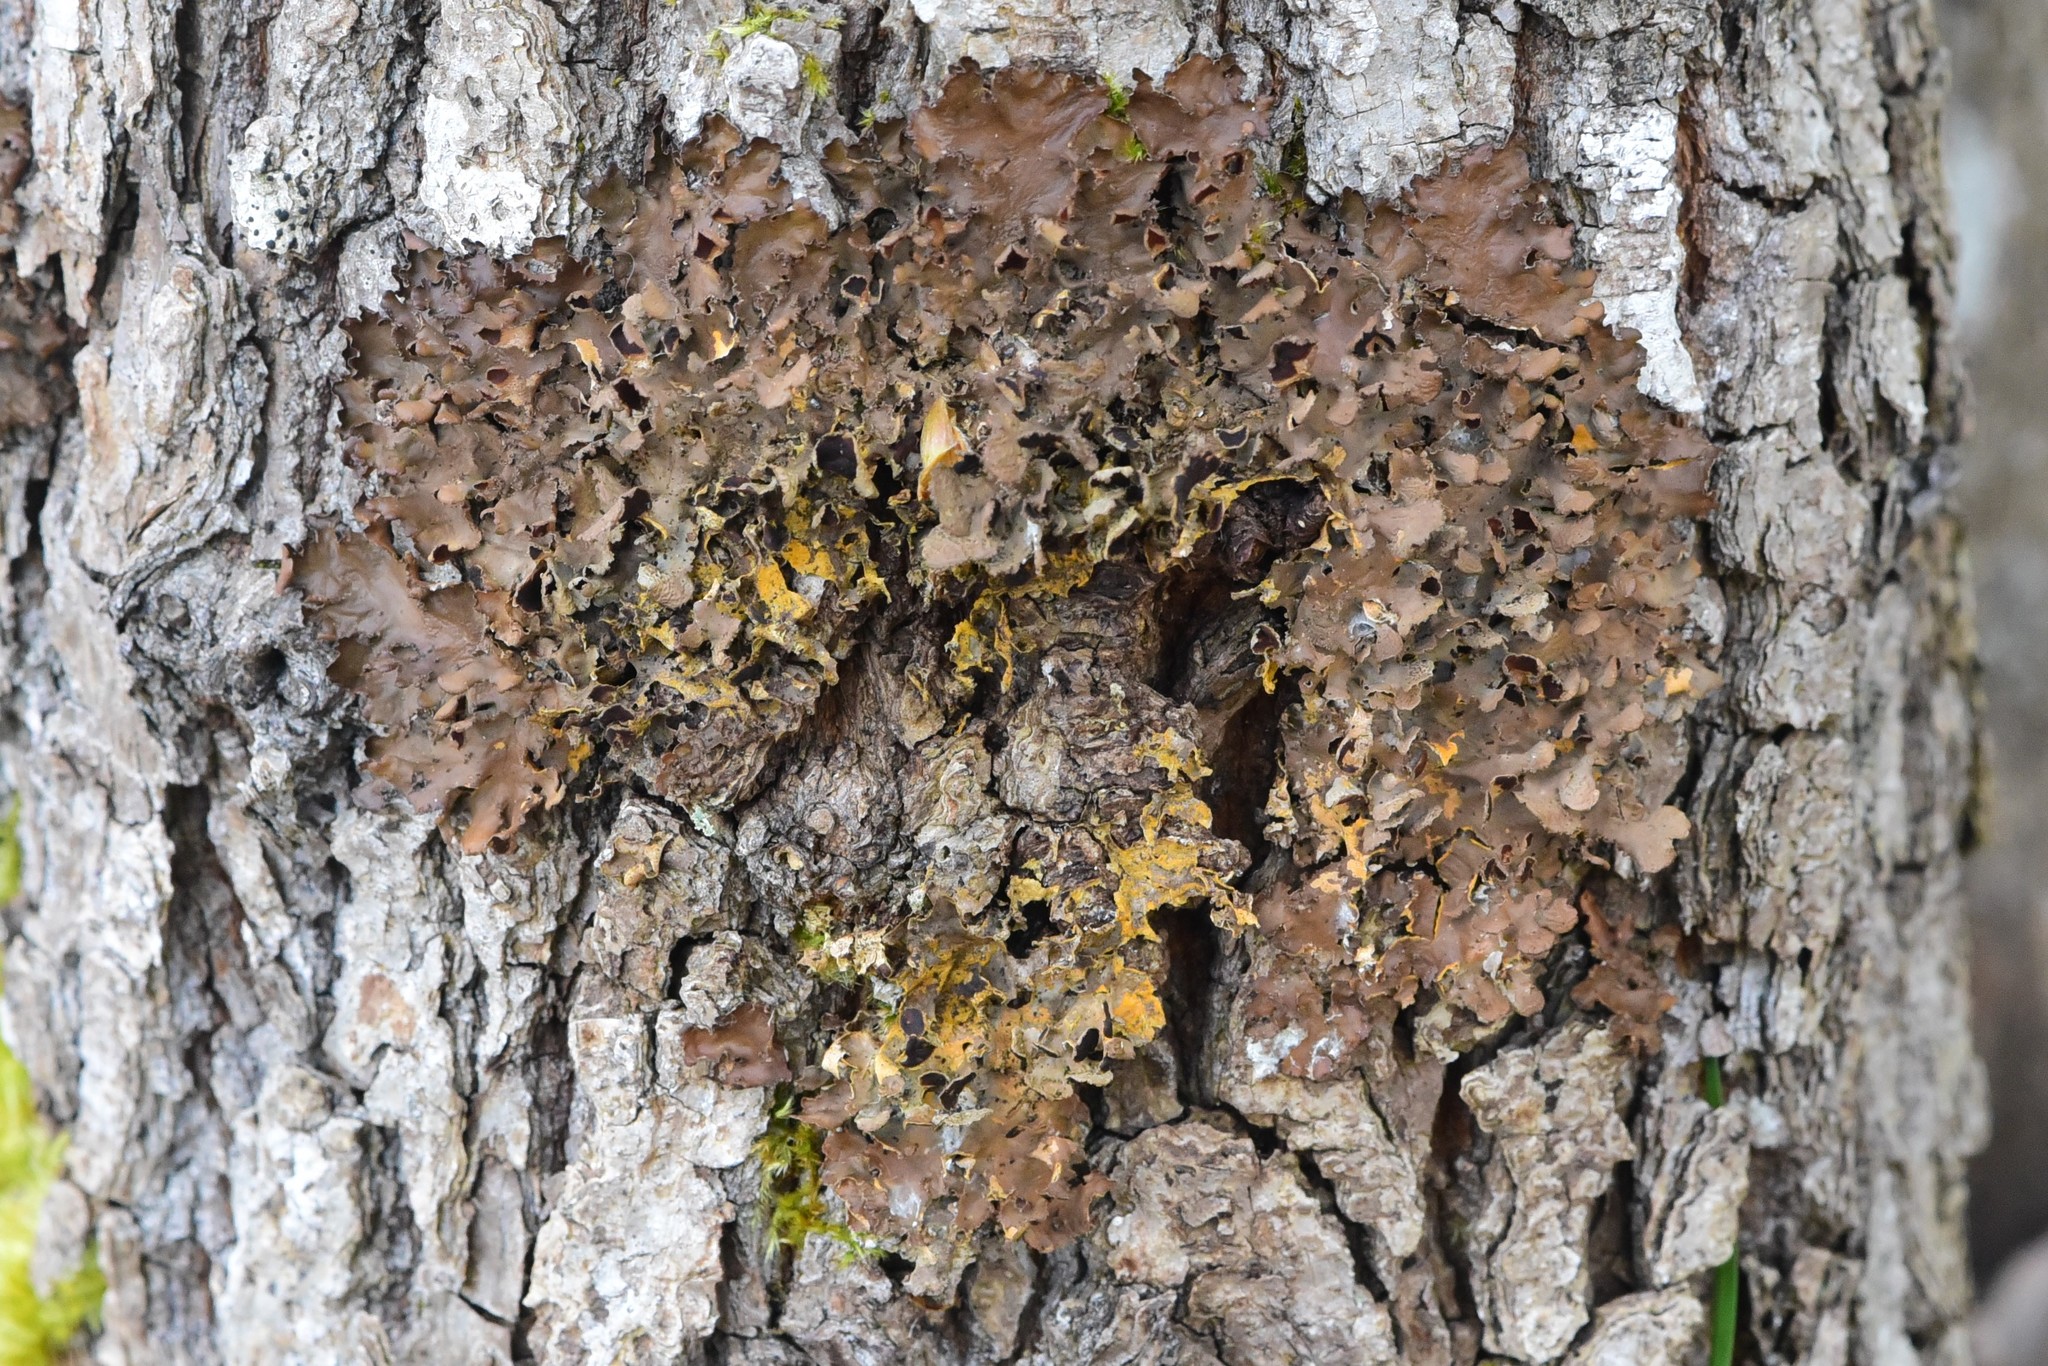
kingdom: Fungi
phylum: Ascomycota
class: Lecanoromycetes
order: Peltigerales
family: Nephromataceae
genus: Nephroma
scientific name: Nephroma laevigatum
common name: Mustard kidney lichen
